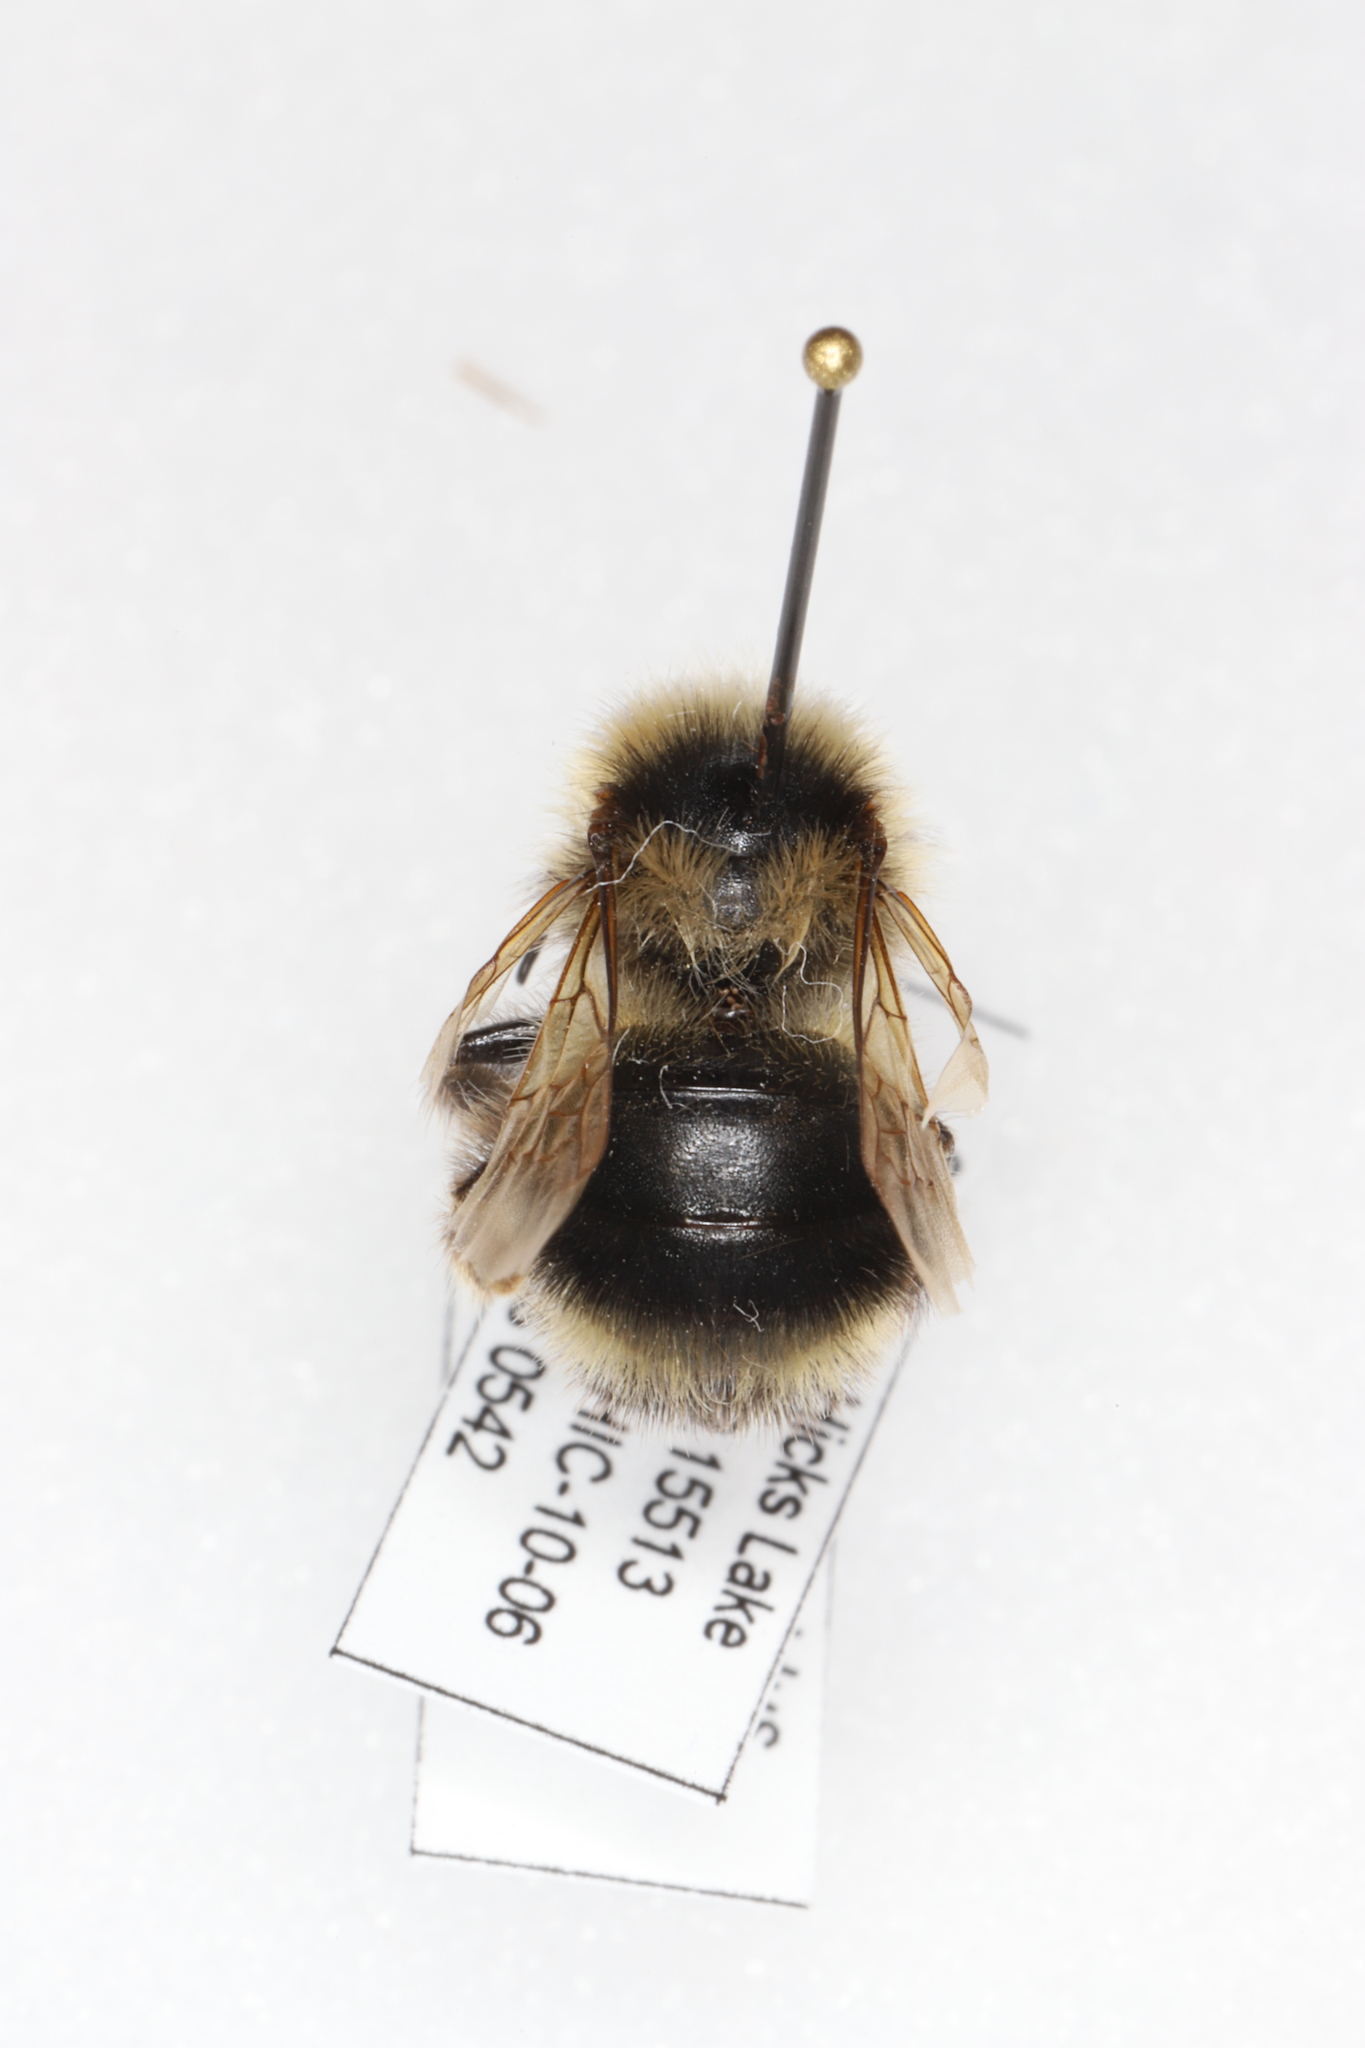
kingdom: Animalia
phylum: Arthropoda
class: Insecta
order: Hymenoptera
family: Apidae
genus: Bombus
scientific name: Bombus flavidus
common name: Fernald cuckoo bumble bee
